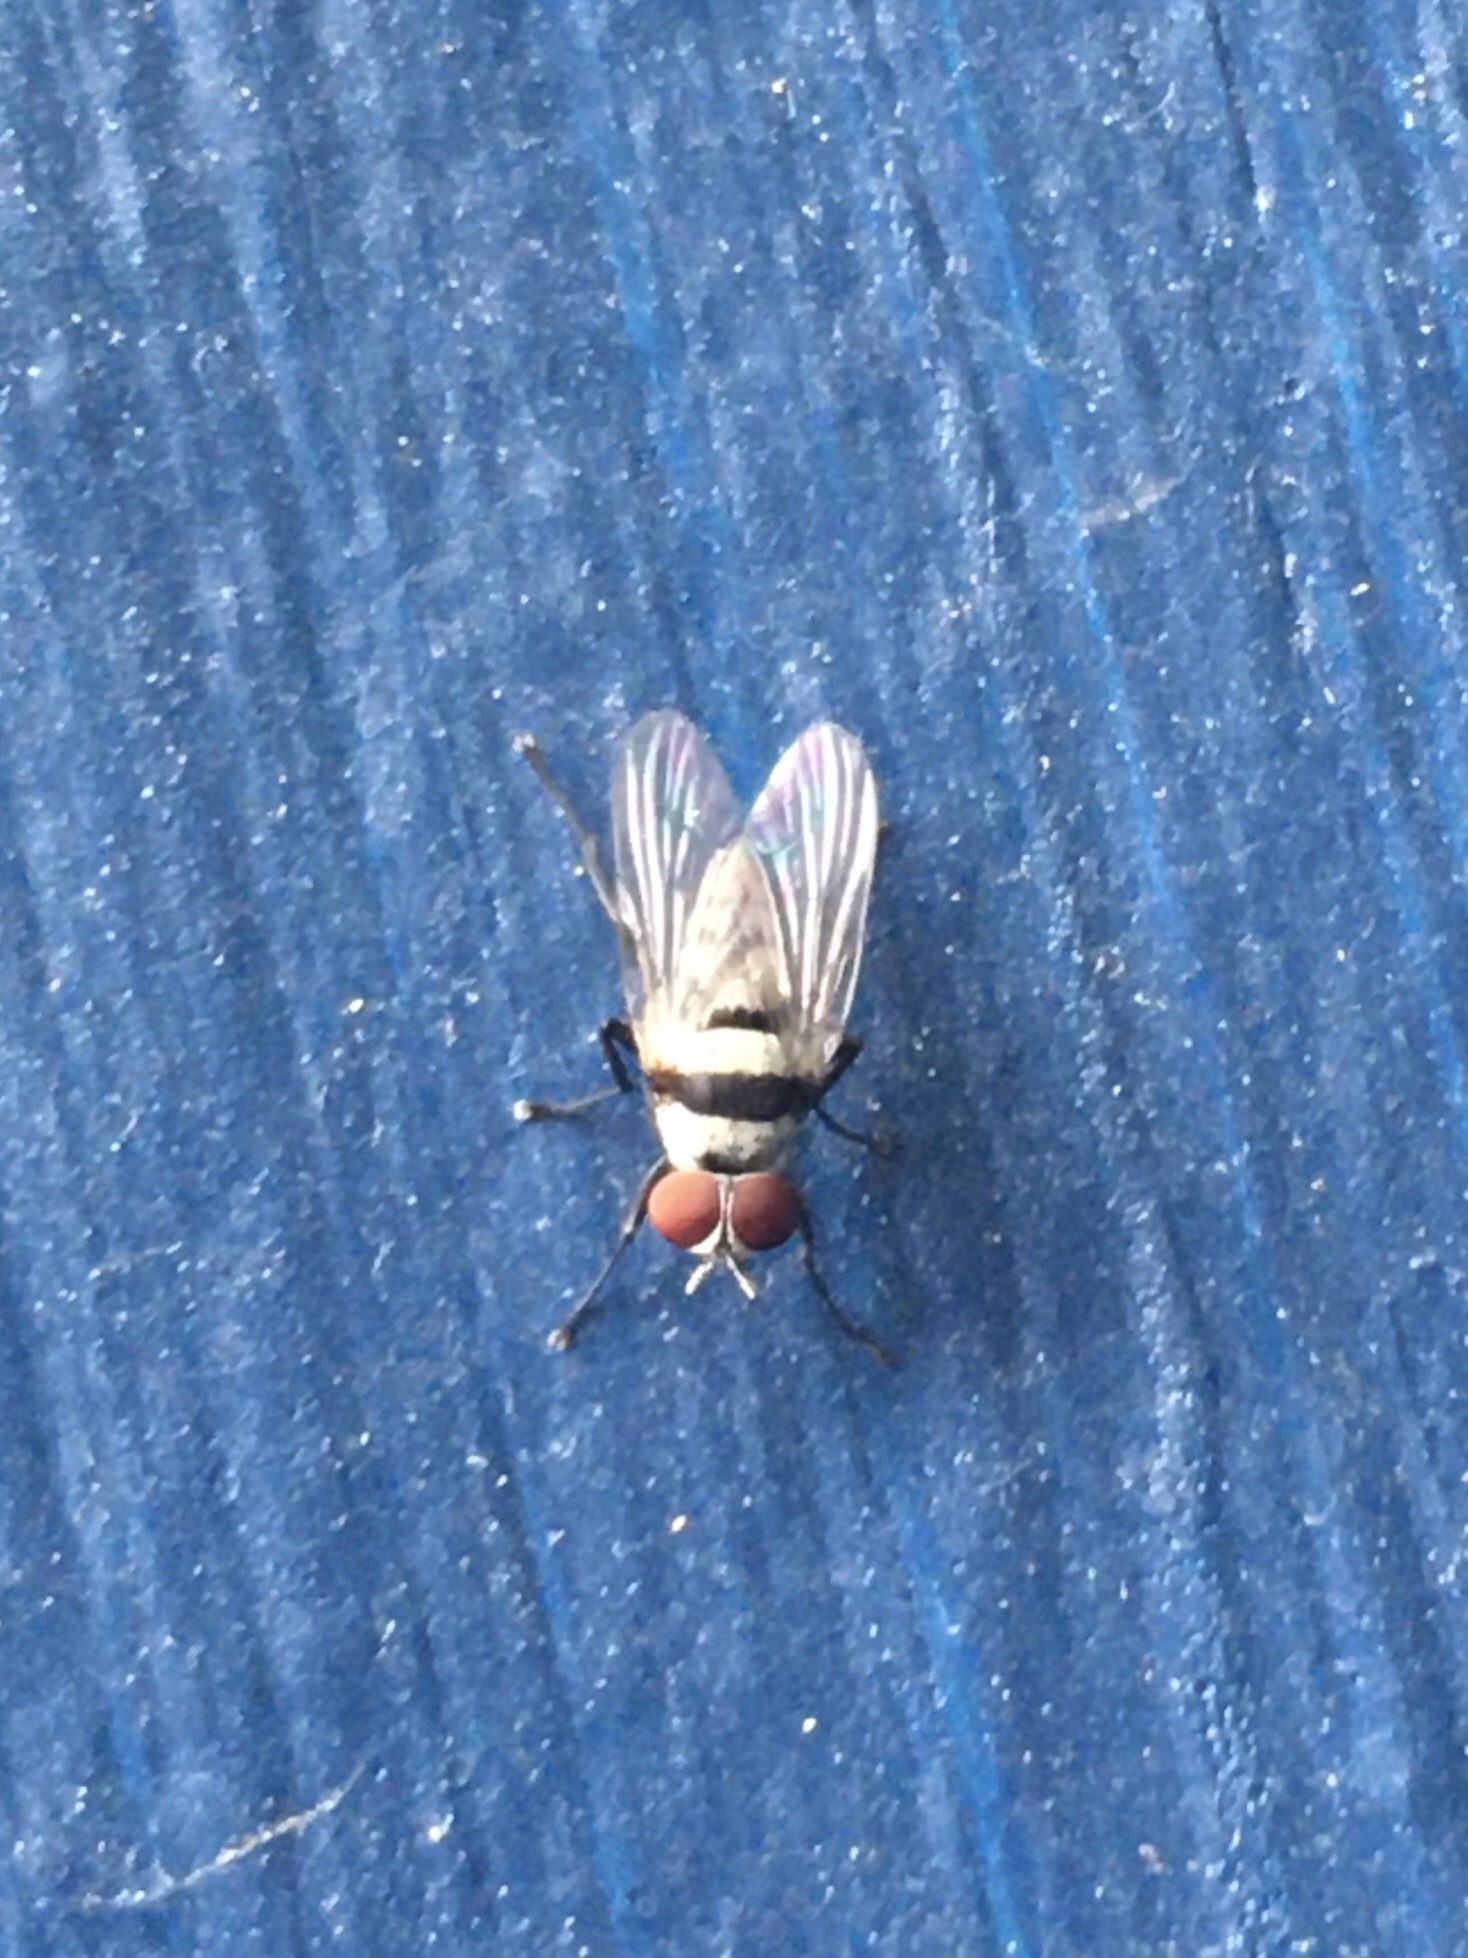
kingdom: Animalia
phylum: Arthropoda
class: Insecta
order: Diptera
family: Anthomyiidae
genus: Anthomyia
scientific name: Anthomyia illocata
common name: Fly
